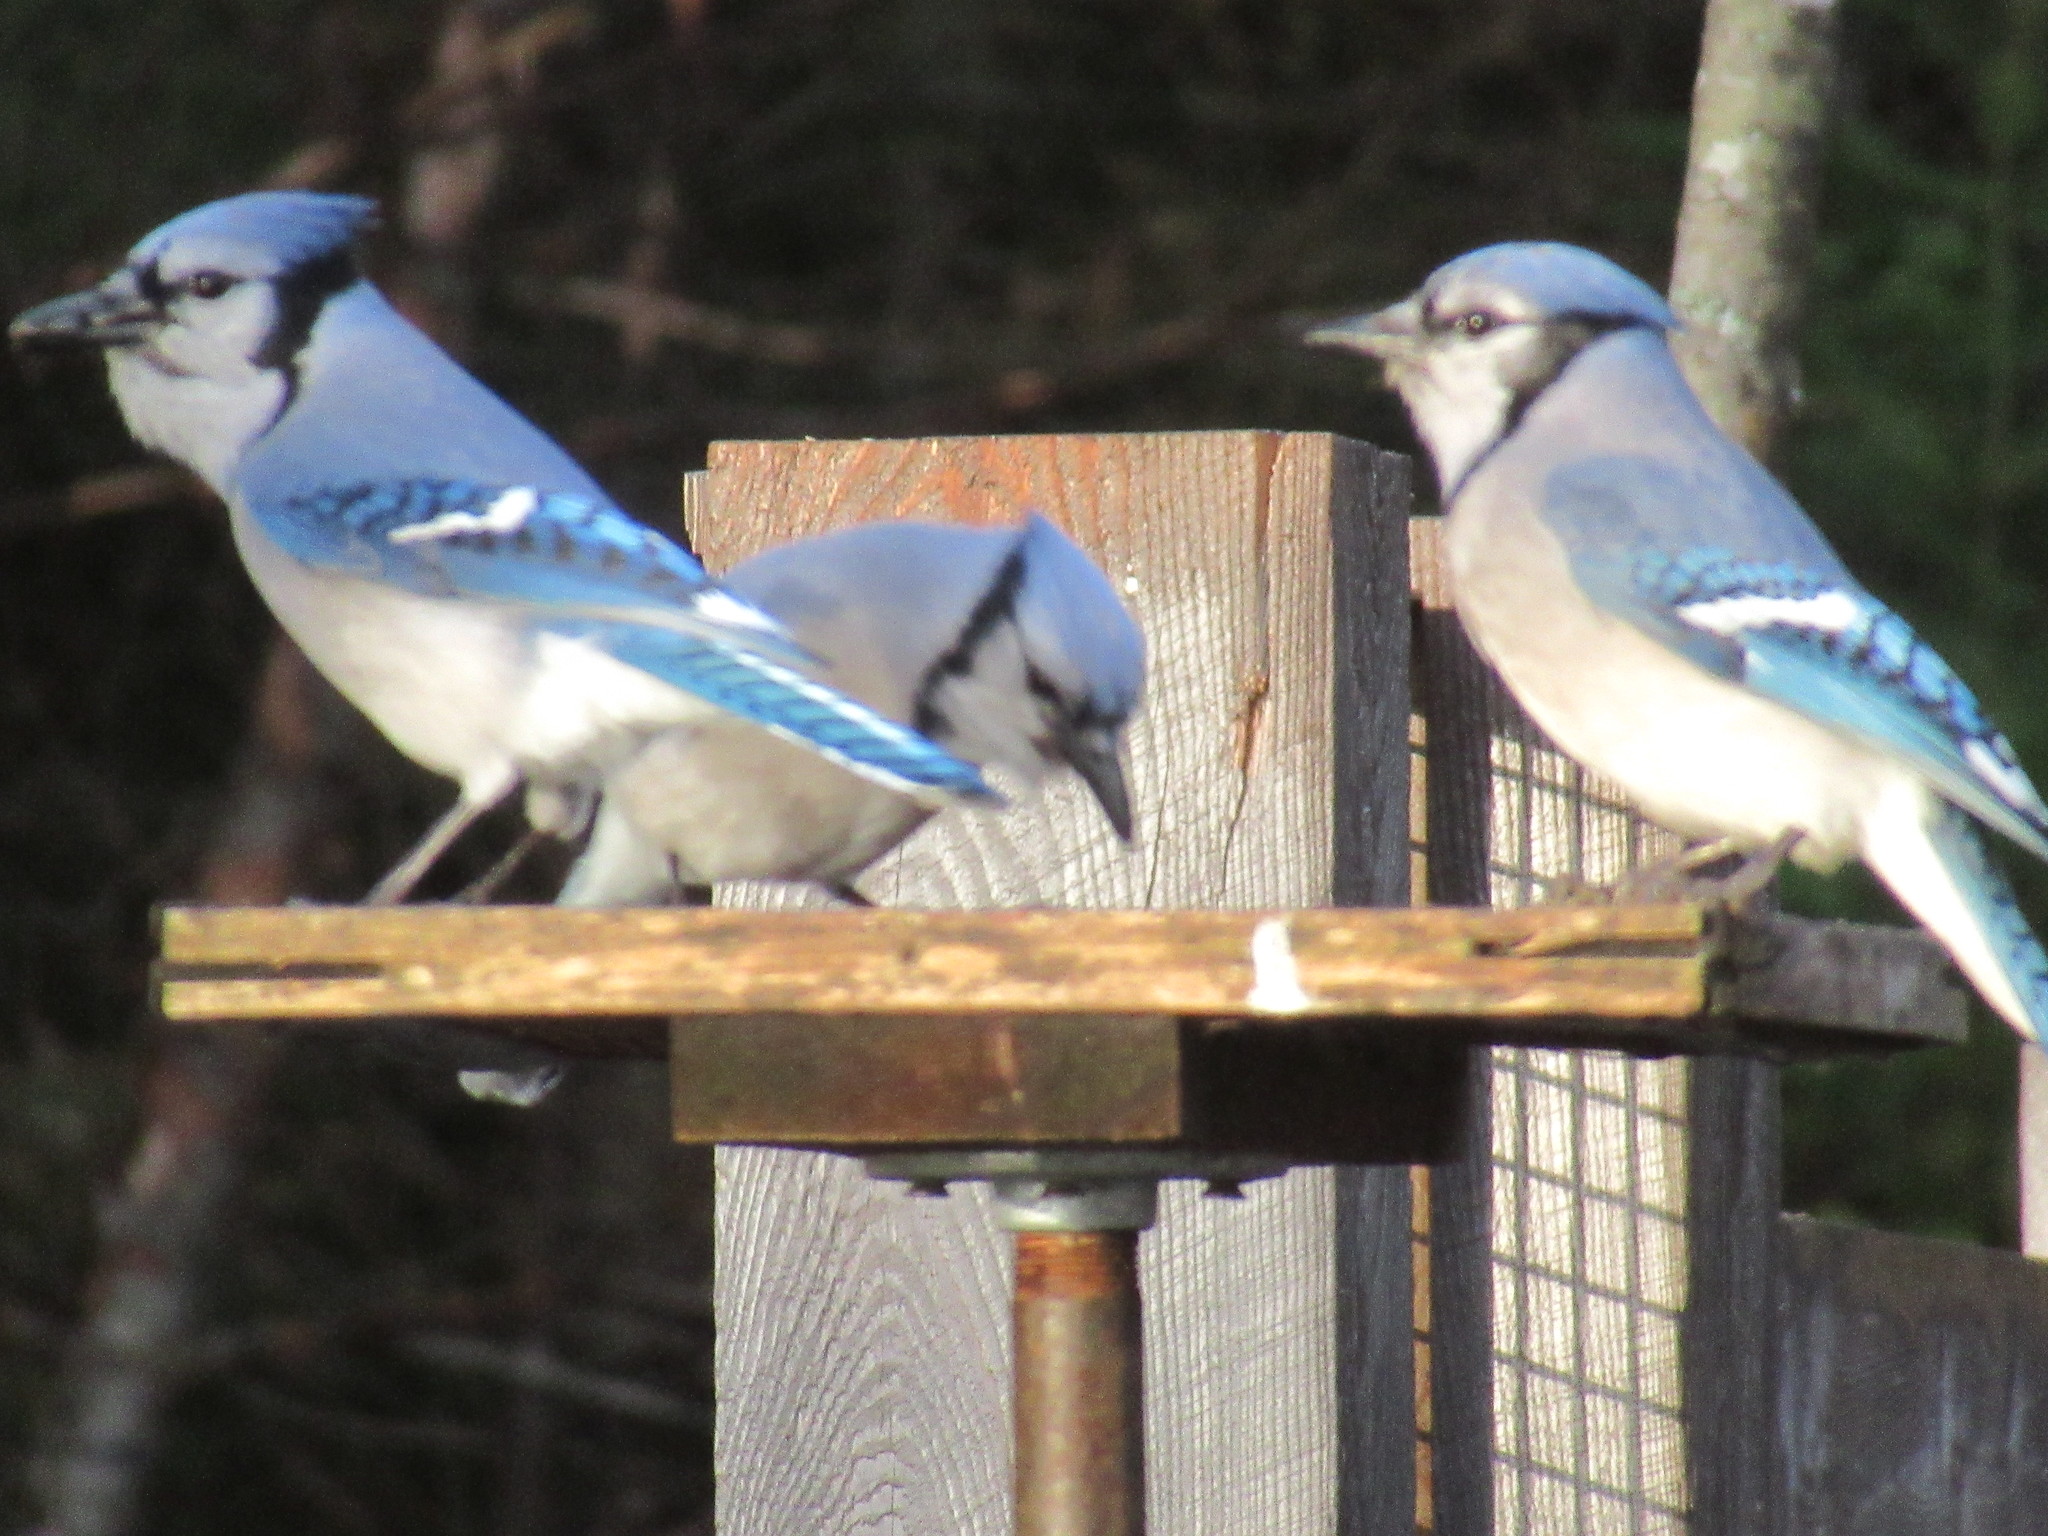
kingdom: Animalia
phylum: Chordata
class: Aves
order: Passeriformes
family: Corvidae
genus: Cyanocitta
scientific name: Cyanocitta cristata
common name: Blue jay
